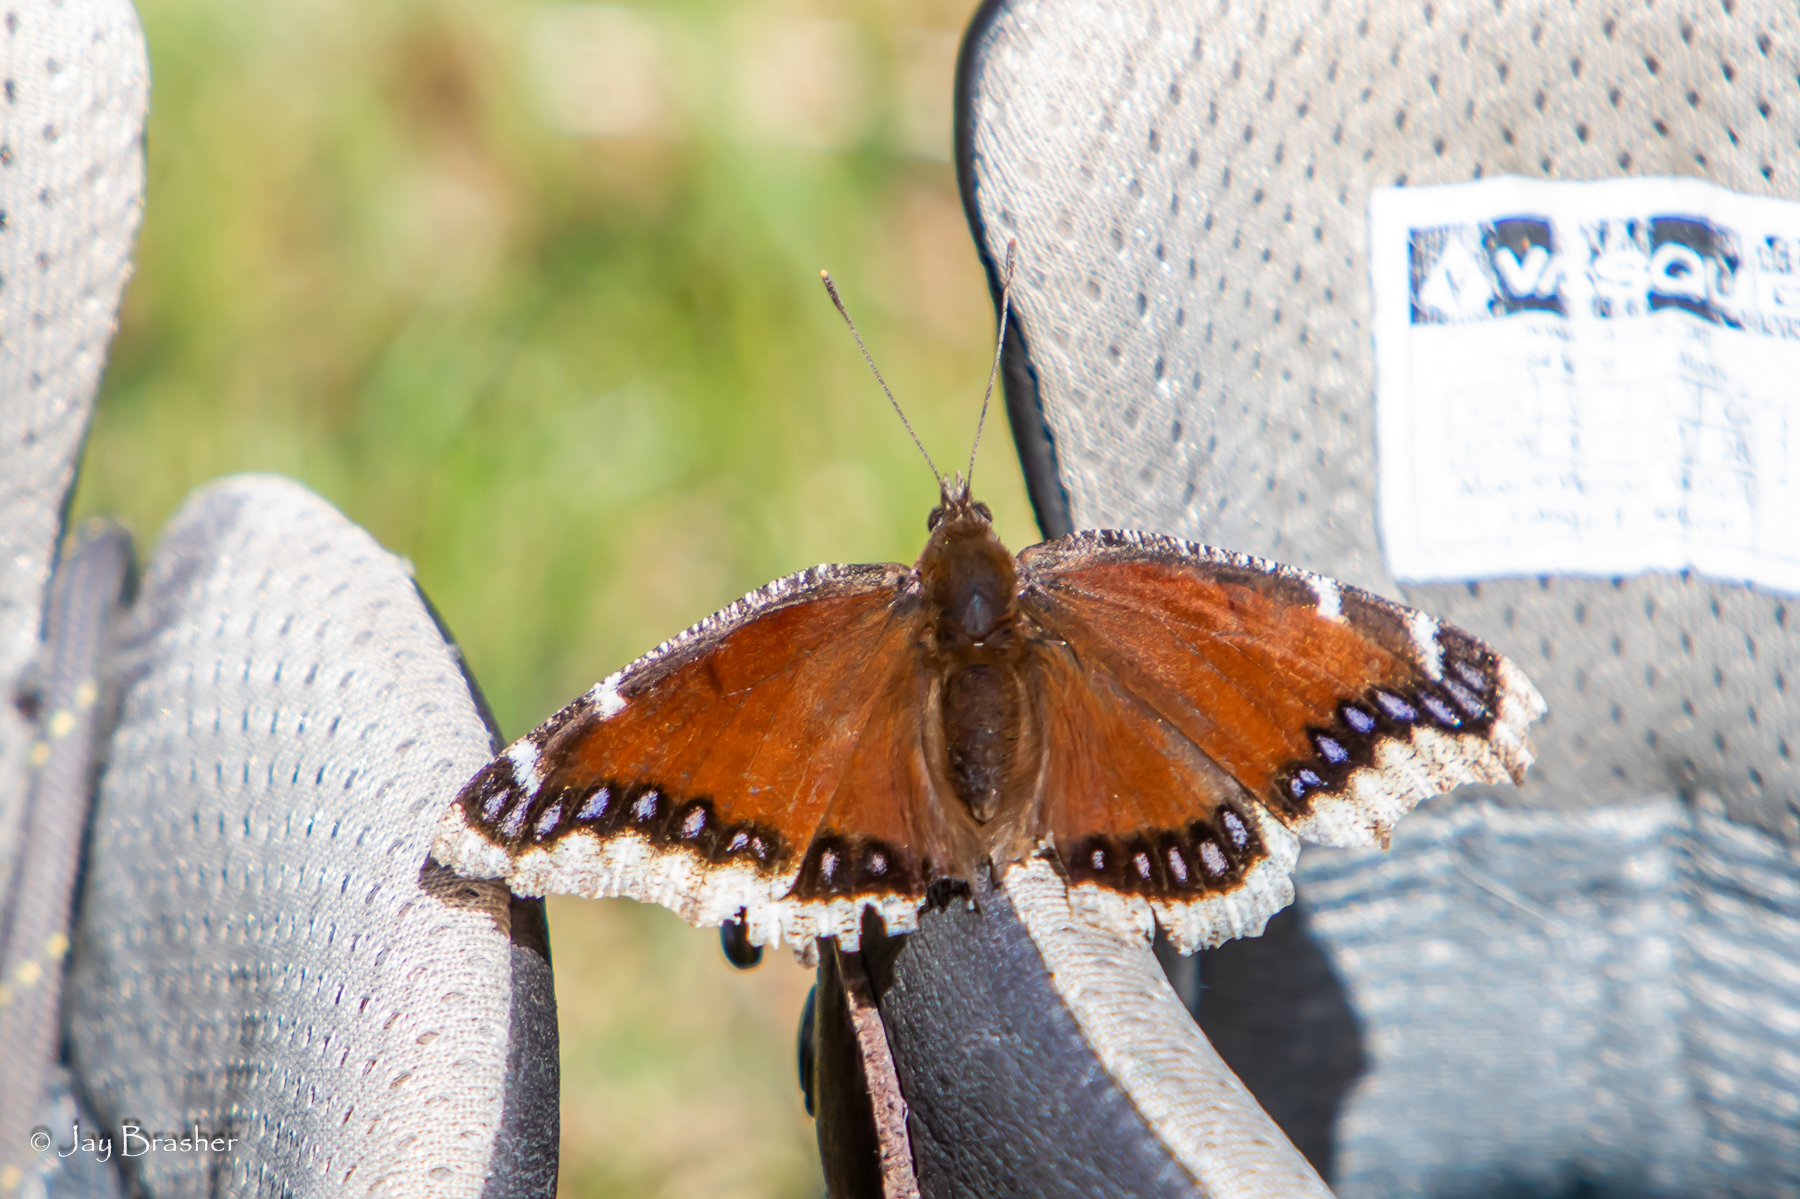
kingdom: Animalia
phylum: Arthropoda
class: Insecta
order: Lepidoptera
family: Nymphalidae
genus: Nymphalis
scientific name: Nymphalis antiopa
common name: Camberwell beauty
